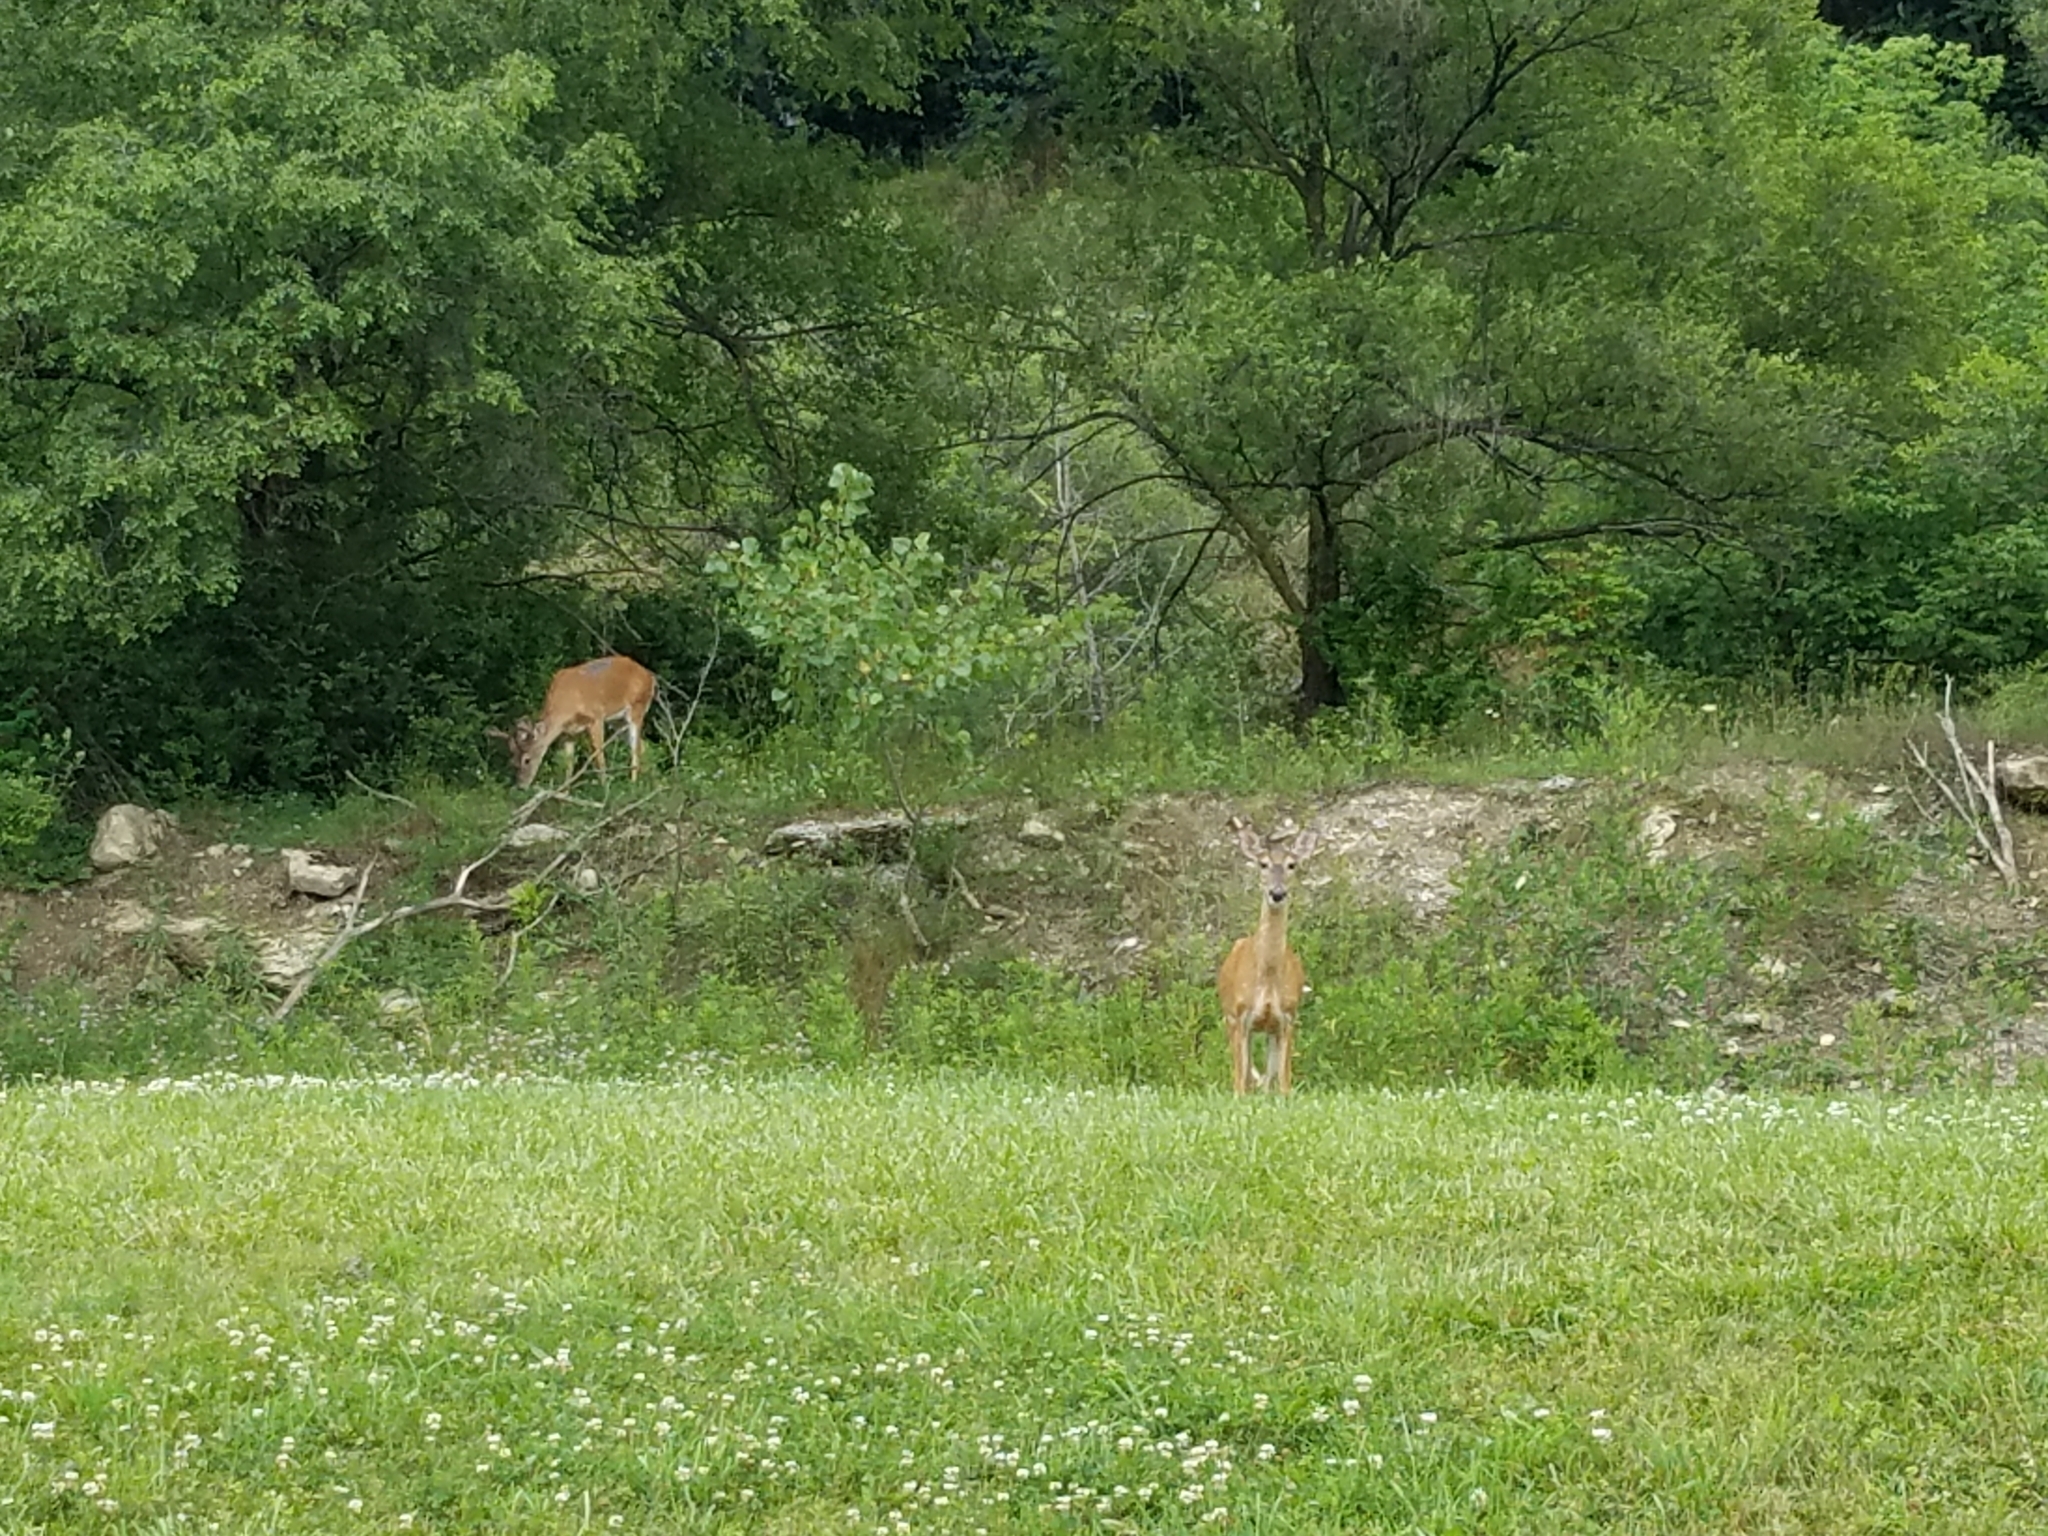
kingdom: Animalia
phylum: Chordata
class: Mammalia
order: Artiodactyla
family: Cervidae
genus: Odocoileus
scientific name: Odocoileus virginianus
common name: White-tailed deer
